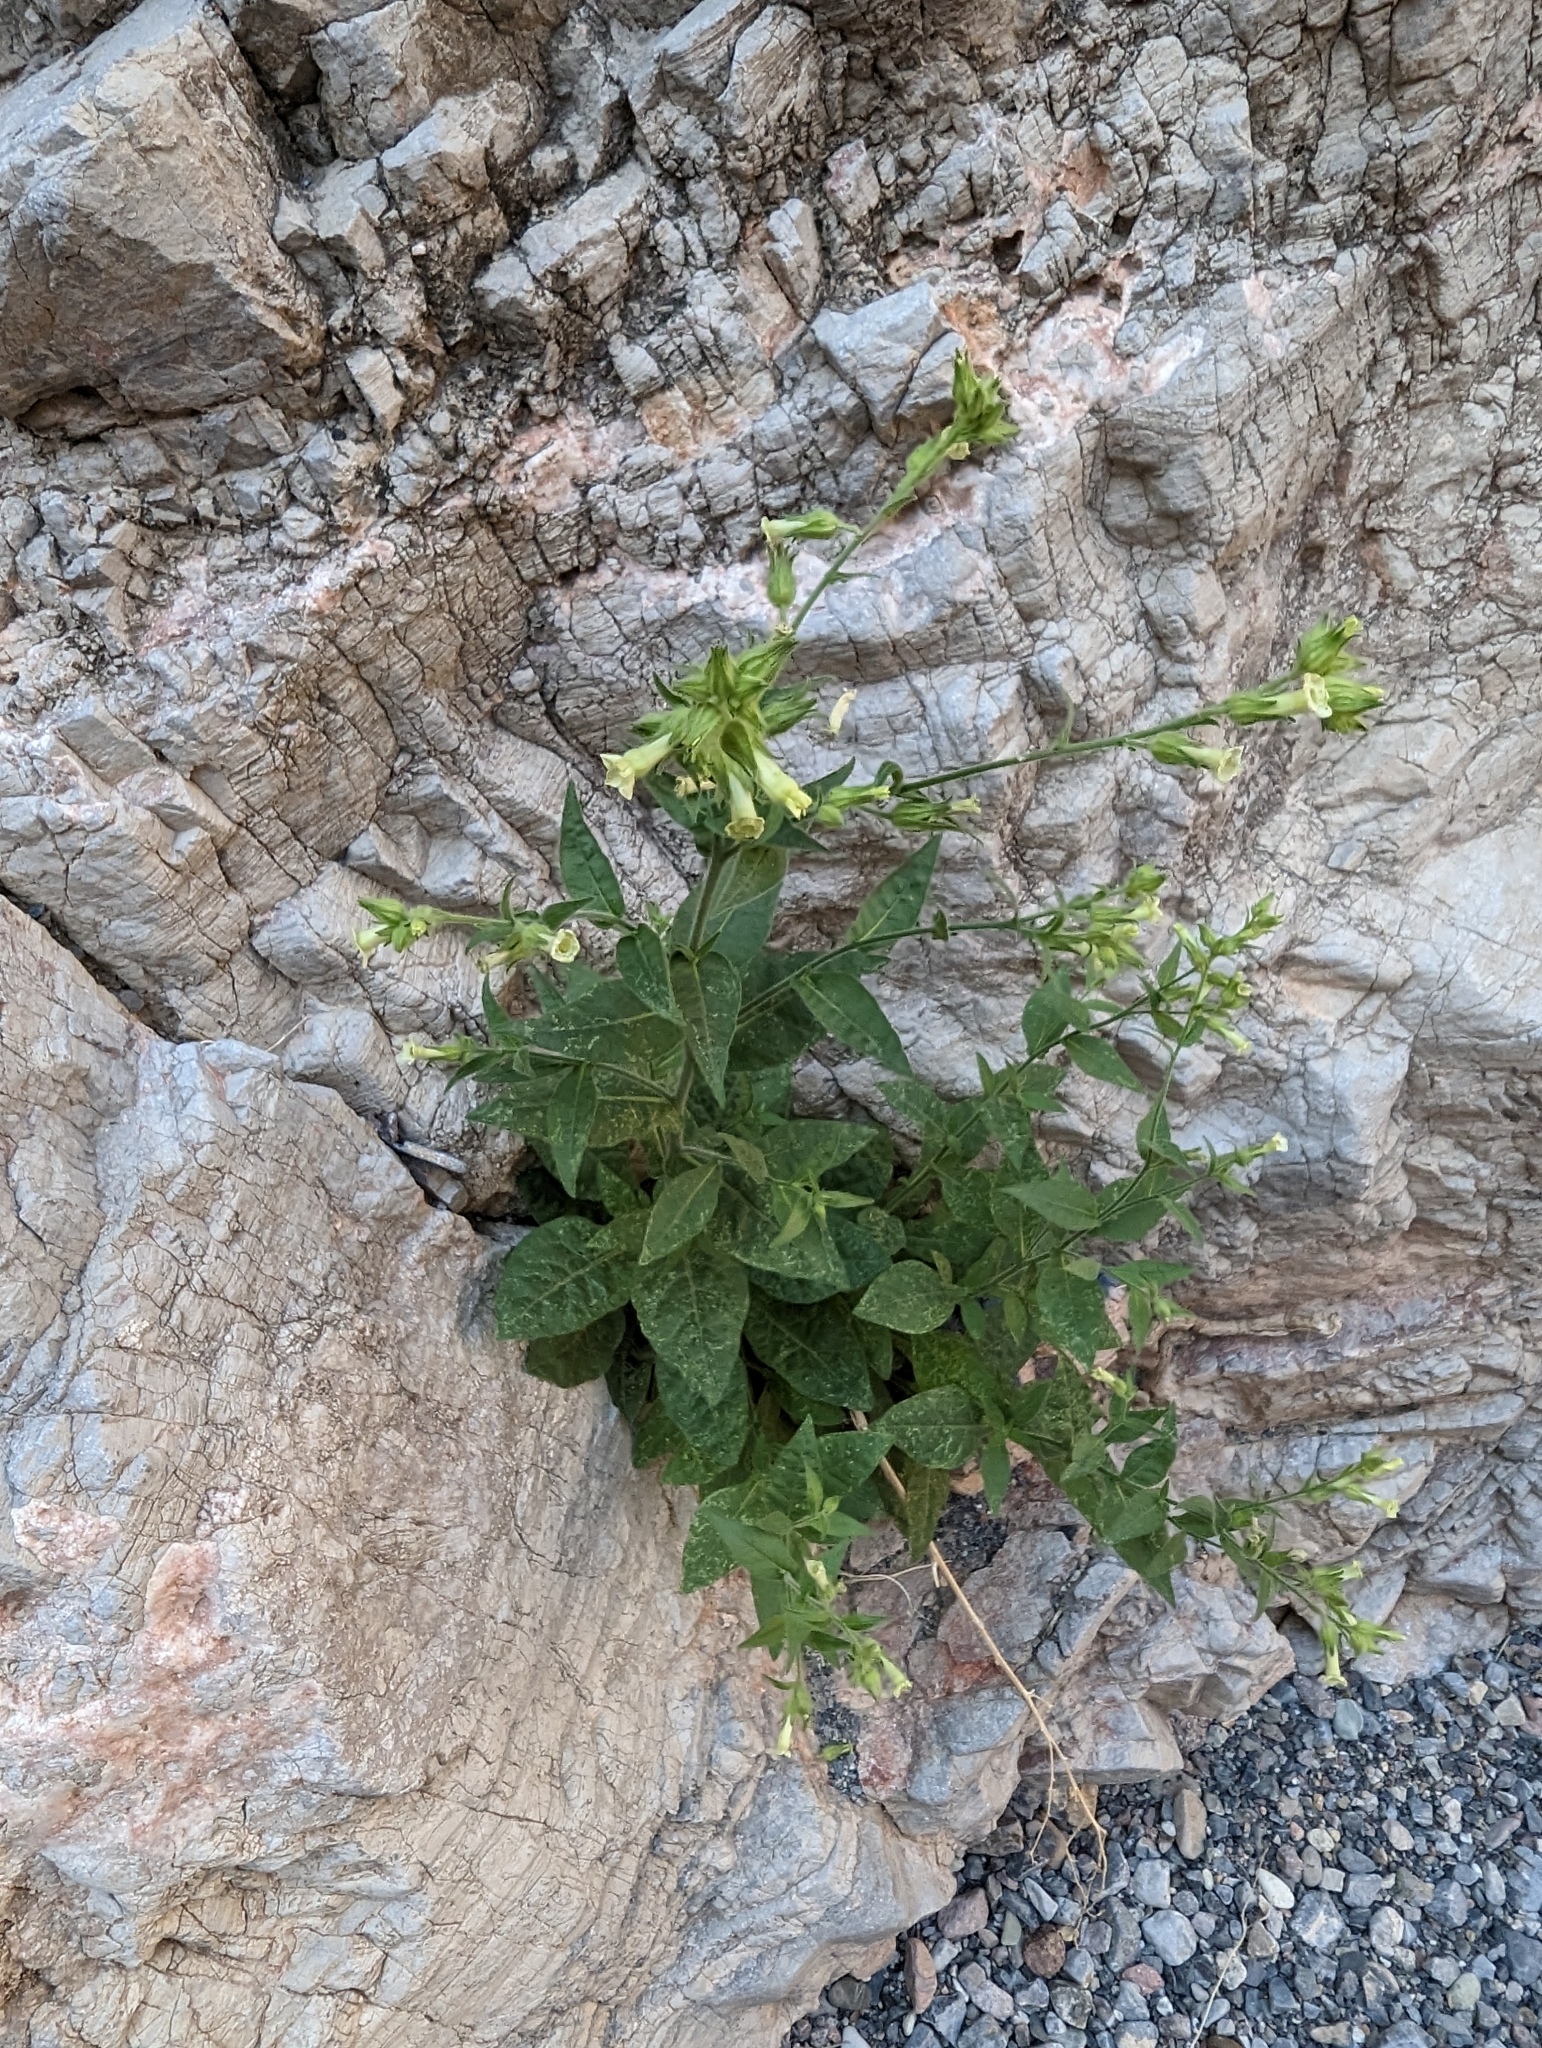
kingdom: Plantae
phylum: Tracheophyta
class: Magnoliopsida
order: Solanales
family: Solanaceae
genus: Nicotiana
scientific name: Nicotiana obtusifolia
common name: Desert tobacco
